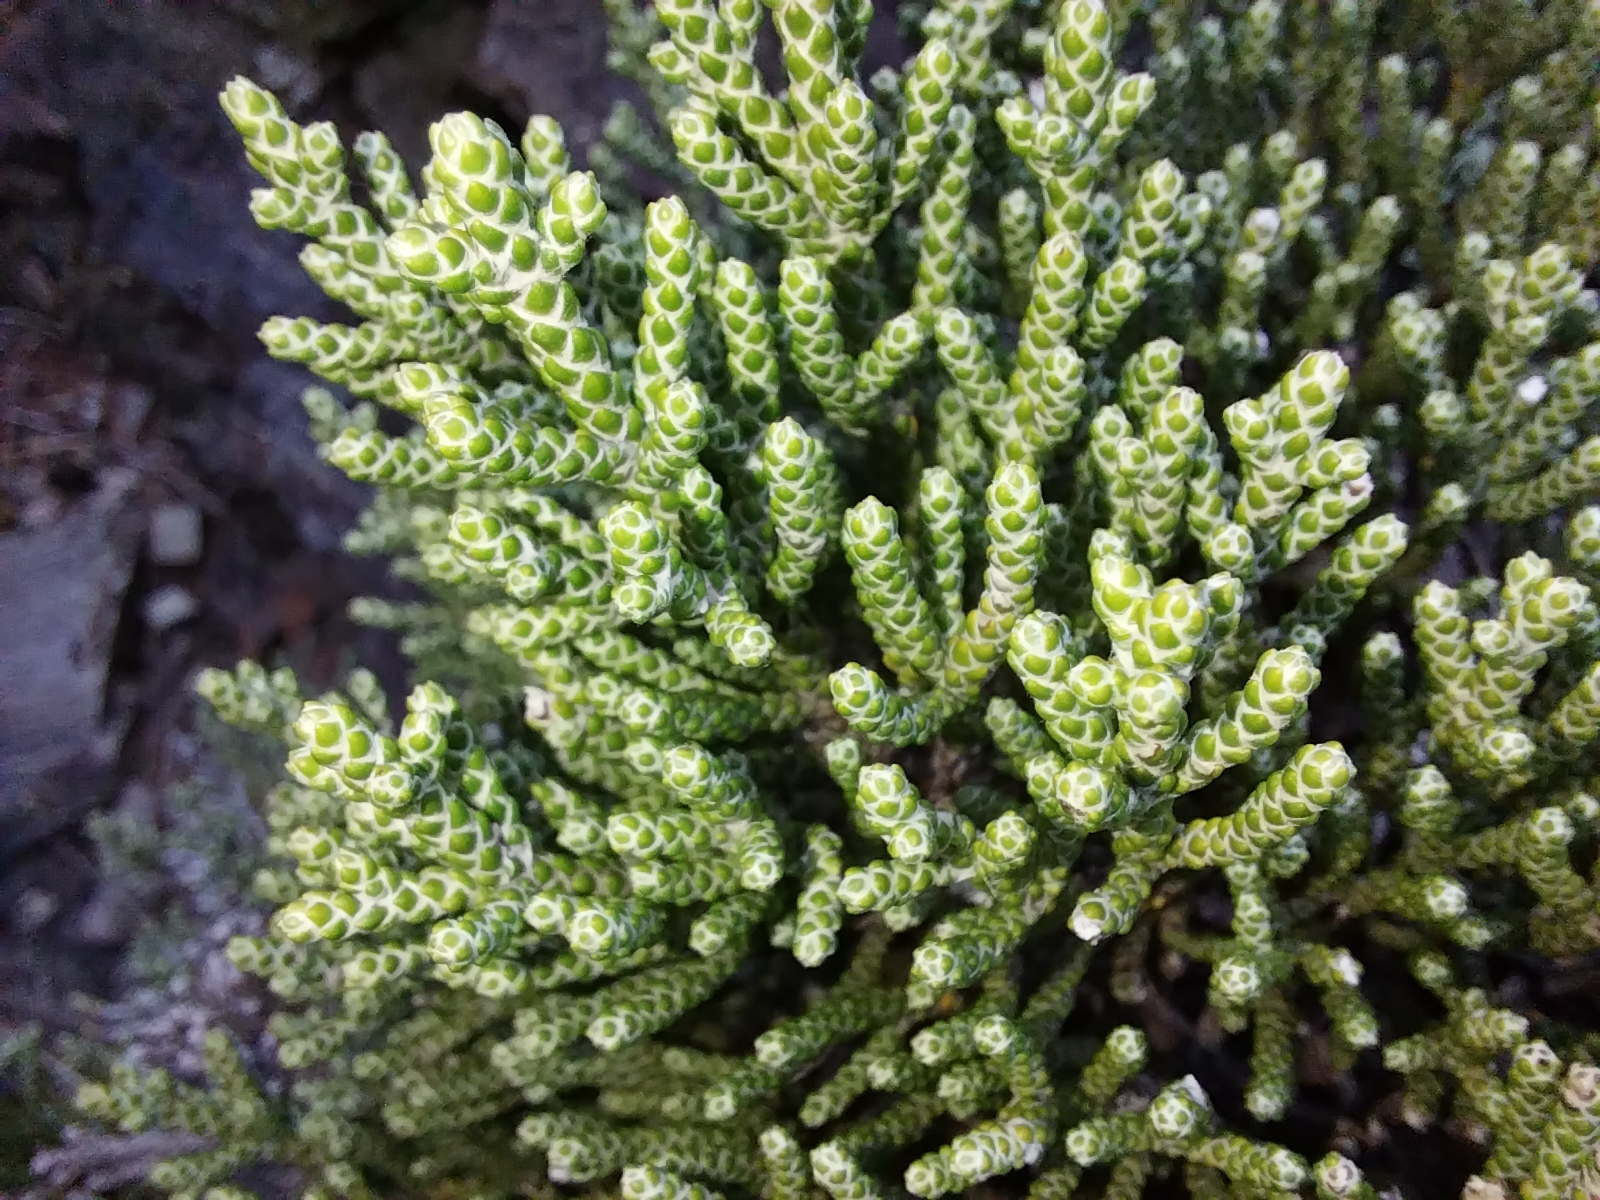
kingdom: Plantae
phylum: Tracheophyta
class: Magnoliopsida
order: Asterales
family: Asteraceae
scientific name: Asteraceae
